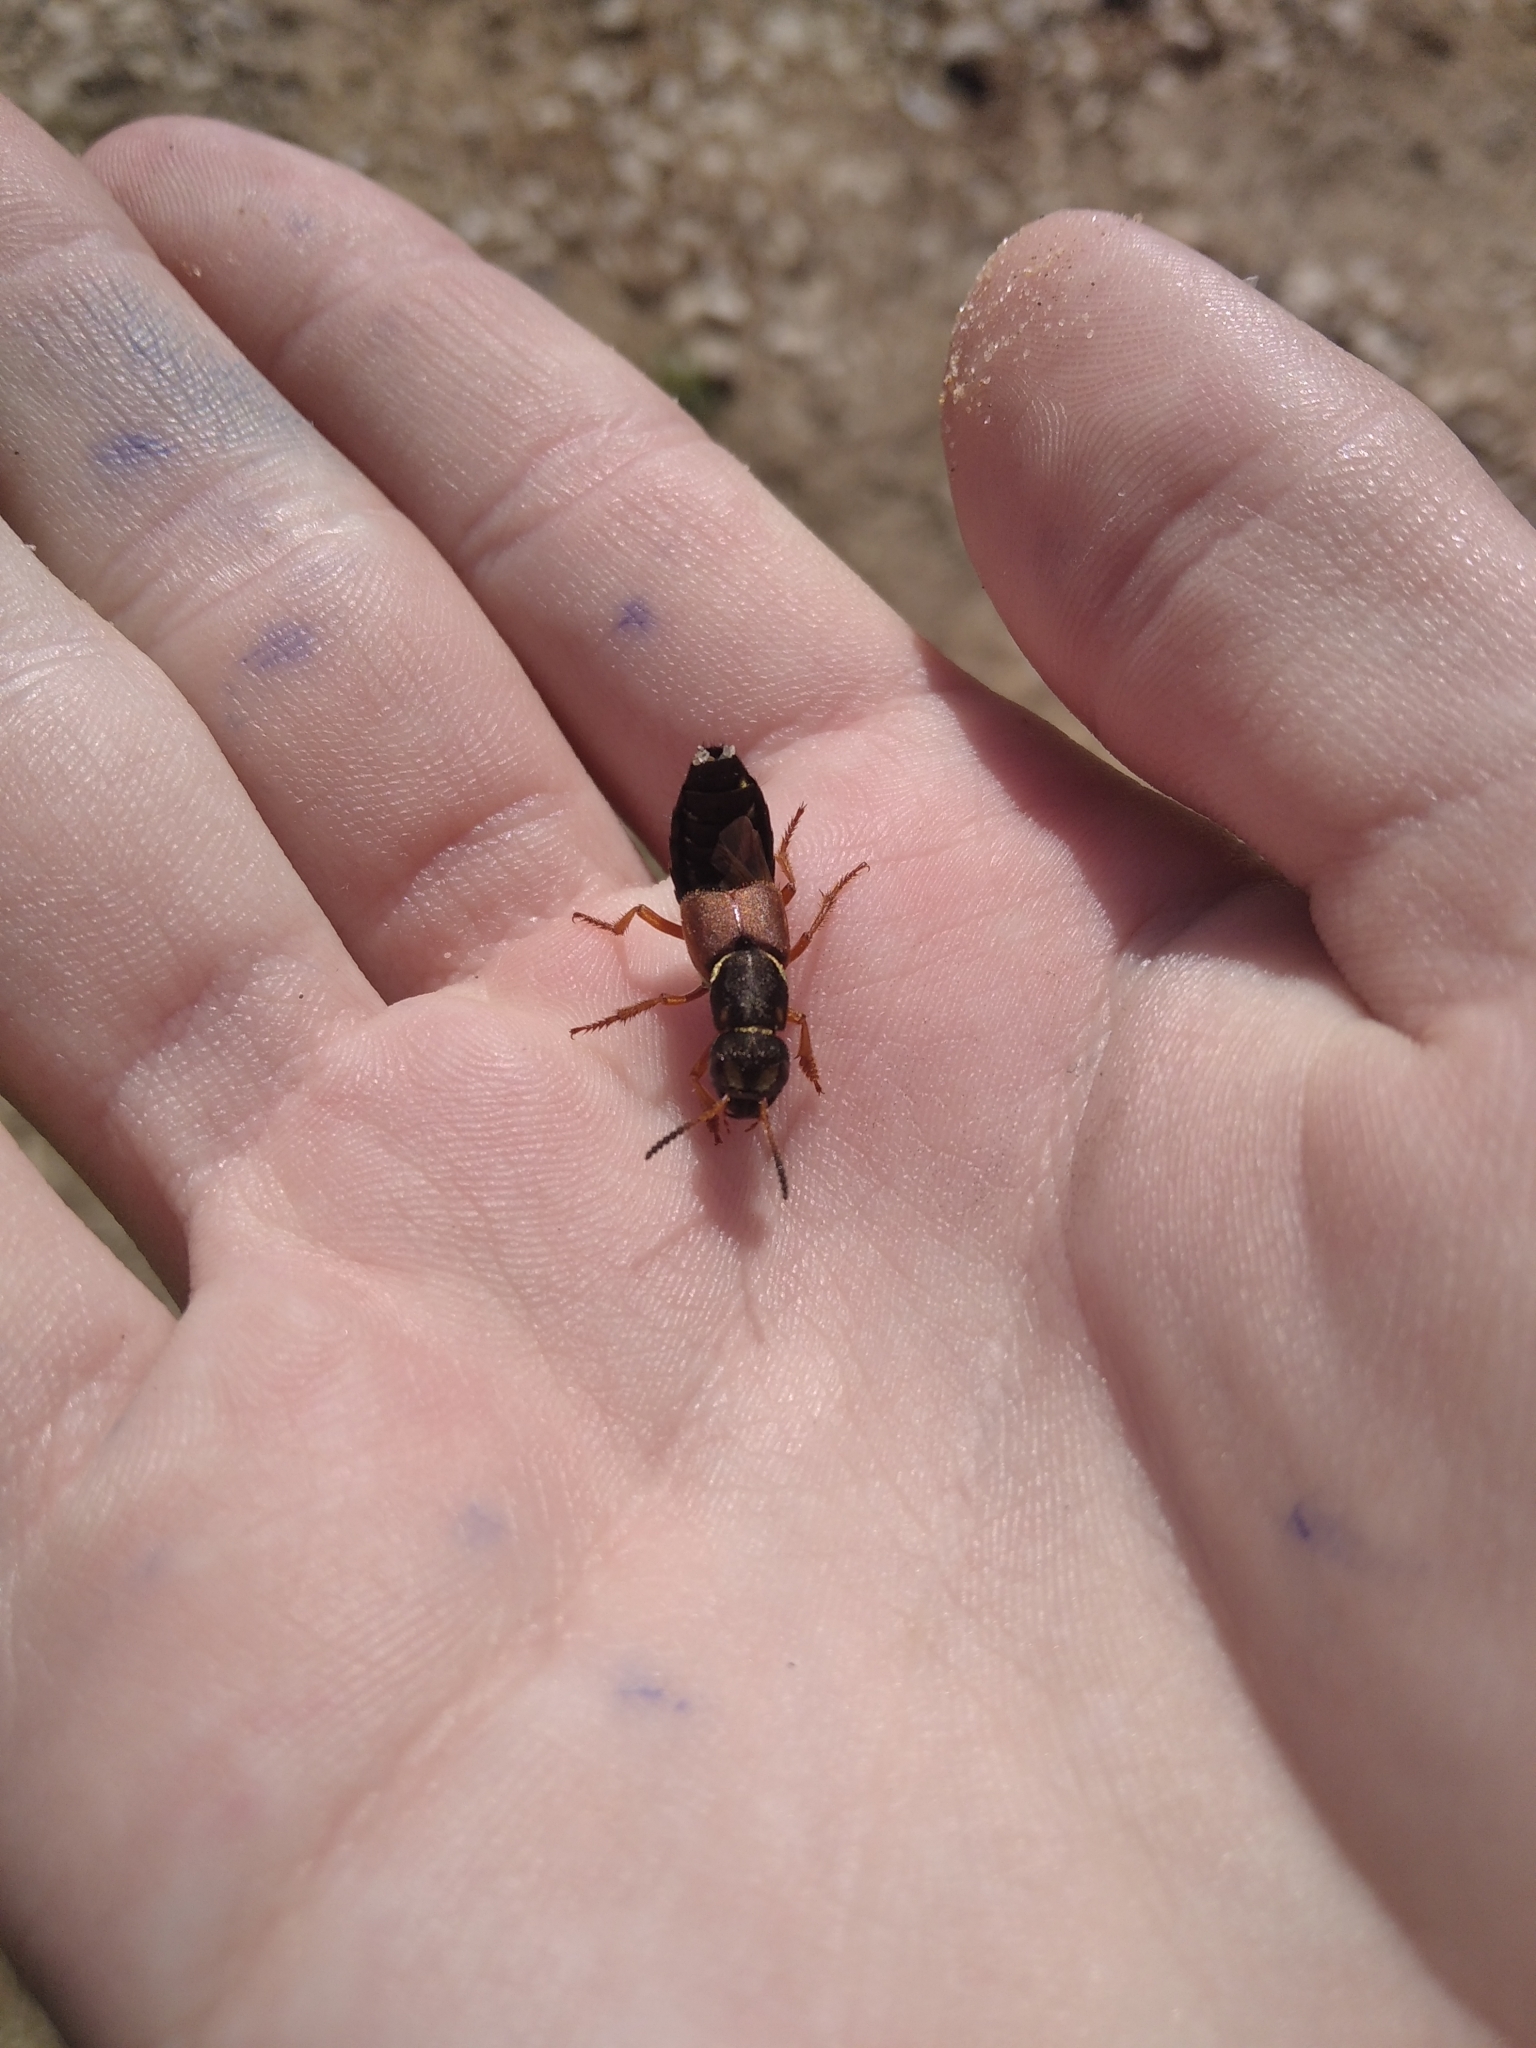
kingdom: Animalia
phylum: Arthropoda
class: Insecta
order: Coleoptera
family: Staphylinidae
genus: Staphylinus
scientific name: Staphylinus caesareus
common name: Staph beetle
